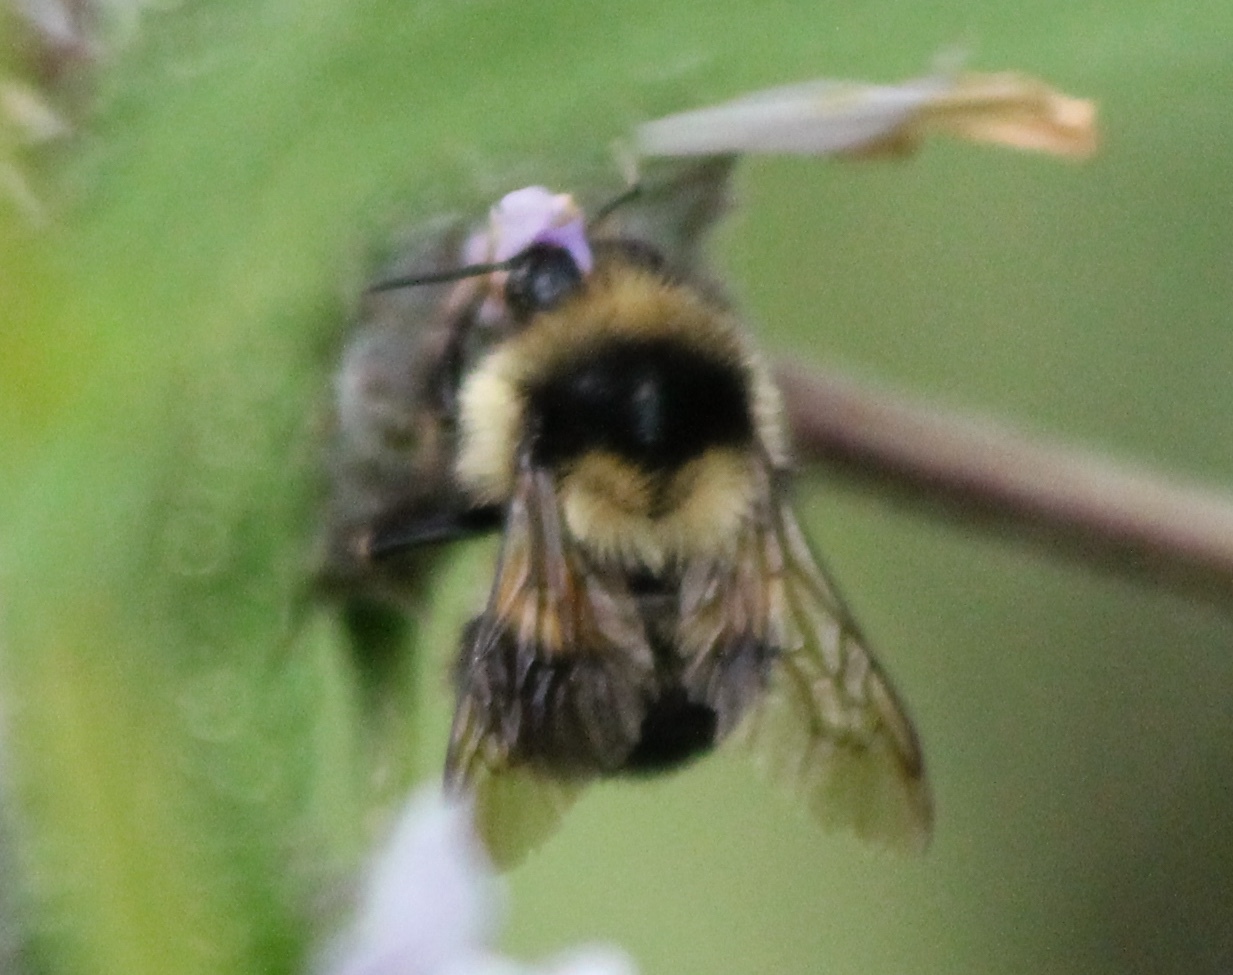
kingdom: Animalia
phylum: Arthropoda
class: Insecta
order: Hymenoptera
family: Apidae
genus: Bombus
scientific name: Bombus melanopygus
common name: Black tail bumble bee
